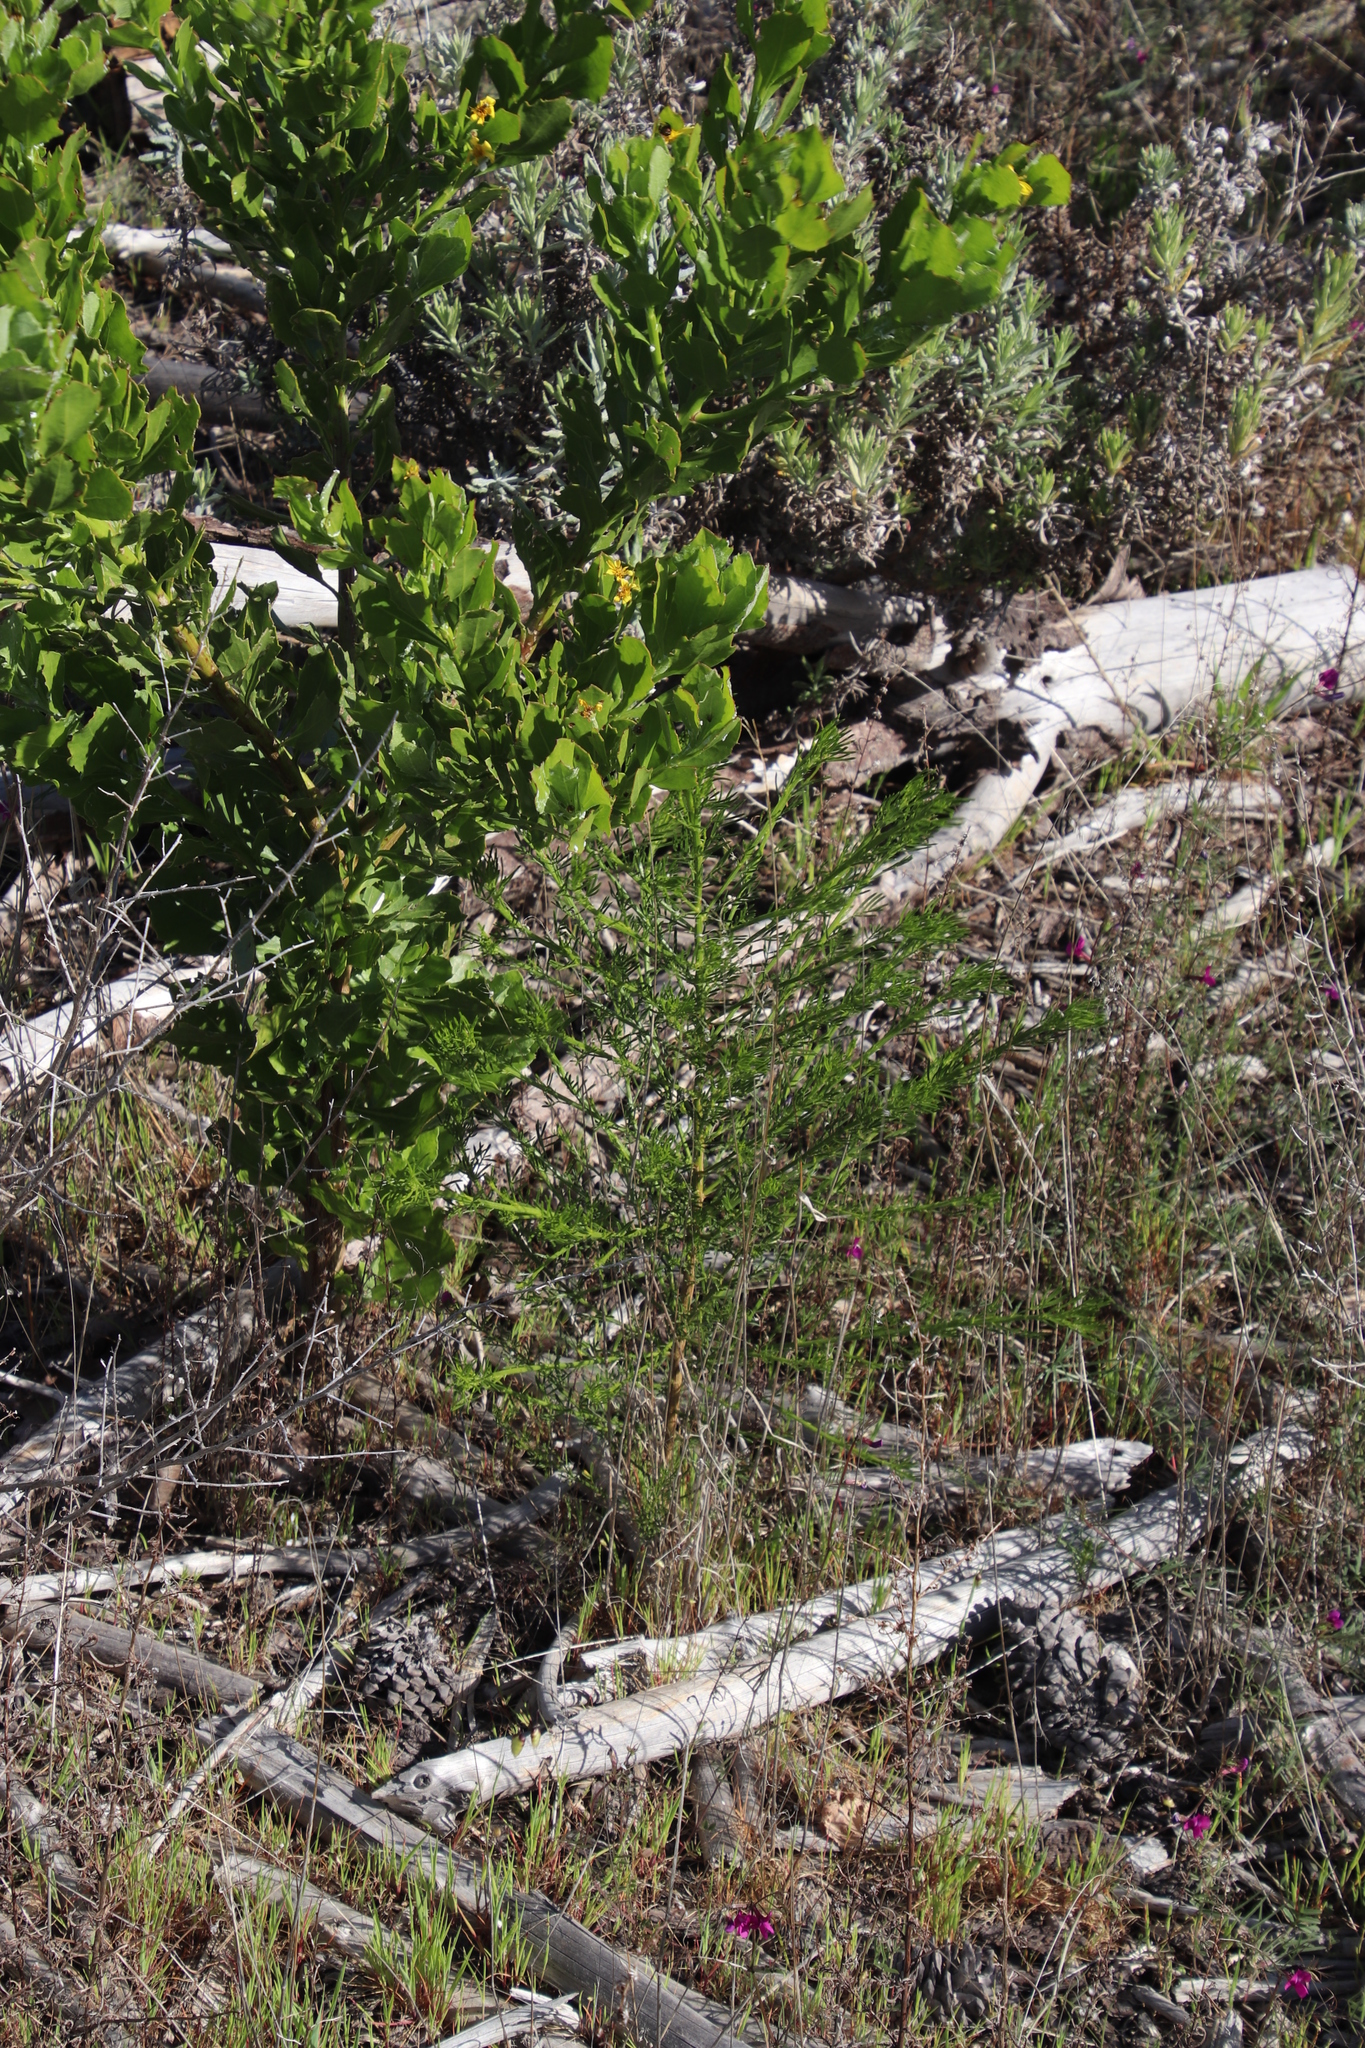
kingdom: Plantae
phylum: Tracheophyta
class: Magnoliopsida
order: Fabales
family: Fabaceae
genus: Psoralea
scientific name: Psoralea pinnata
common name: African scurfpea
